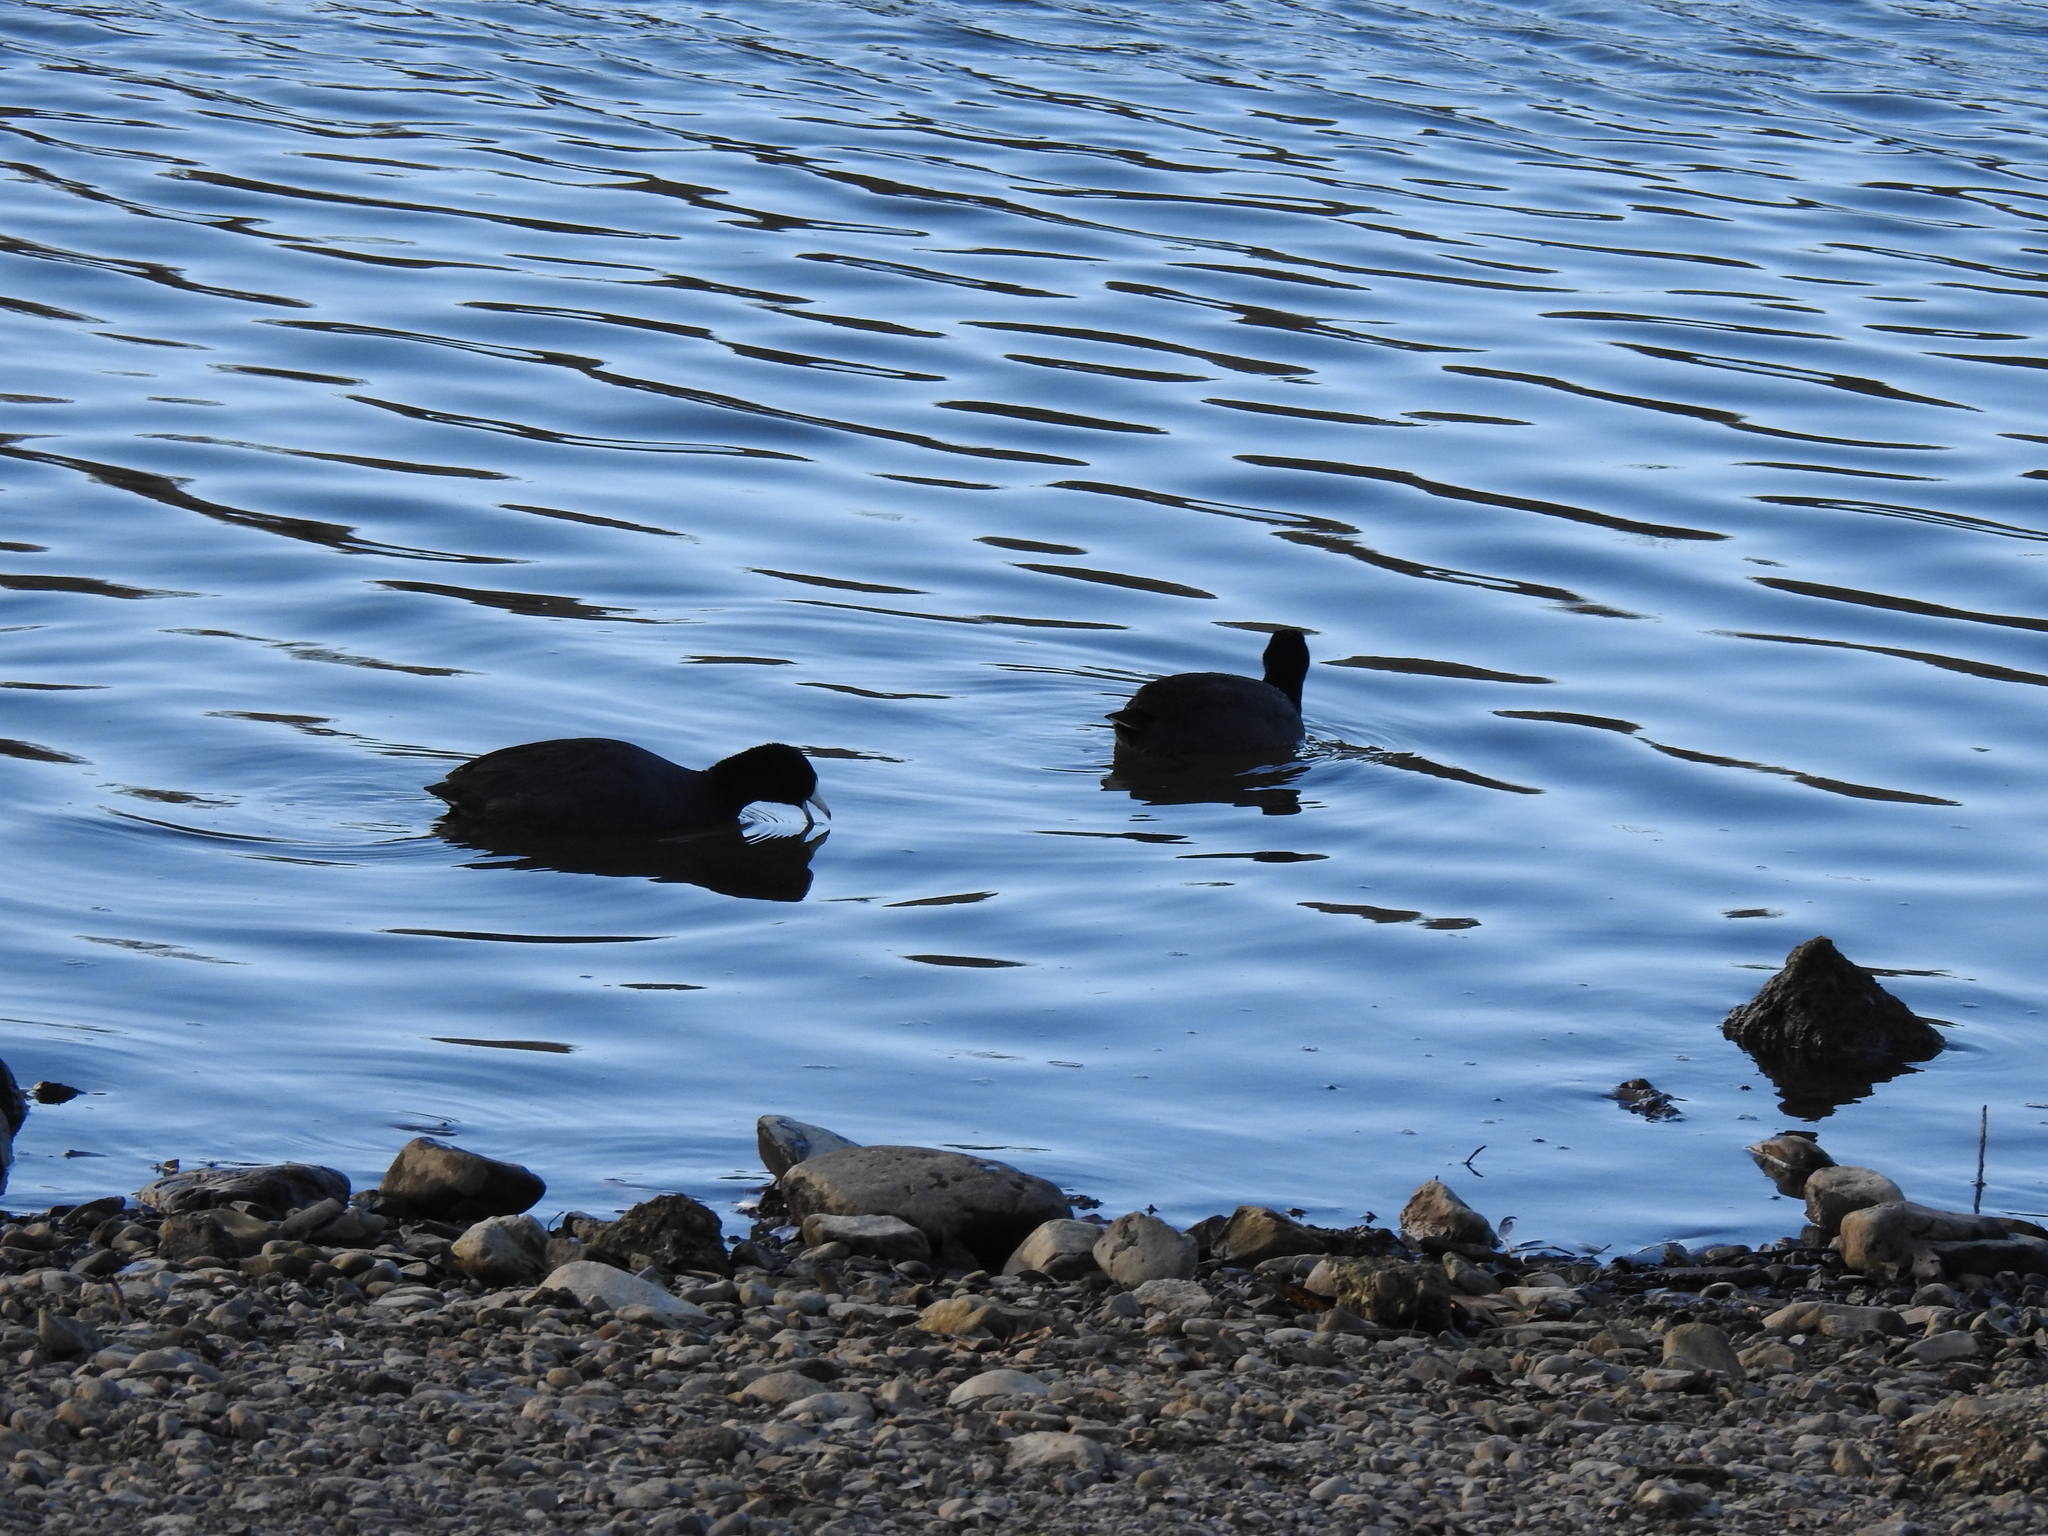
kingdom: Animalia
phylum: Chordata
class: Aves
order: Gruiformes
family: Rallidae
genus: Fulica
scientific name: Fulica americana
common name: American coot
